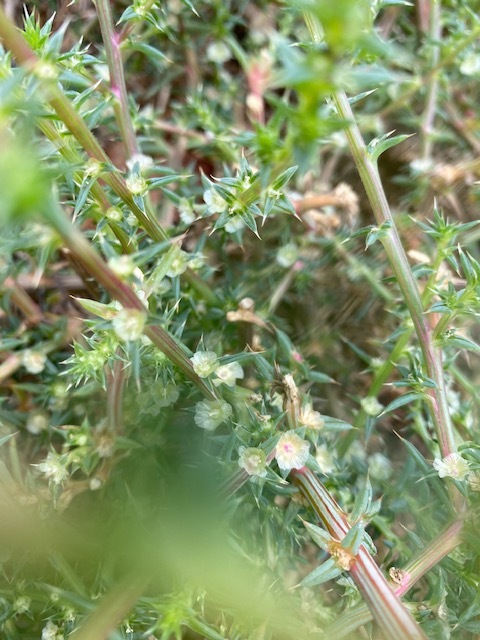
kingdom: Plantae
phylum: Tracheophyta
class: Magnoliopsida
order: Caryophyllales
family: Amaranthaceae
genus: Salsola
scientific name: Salsola australis
